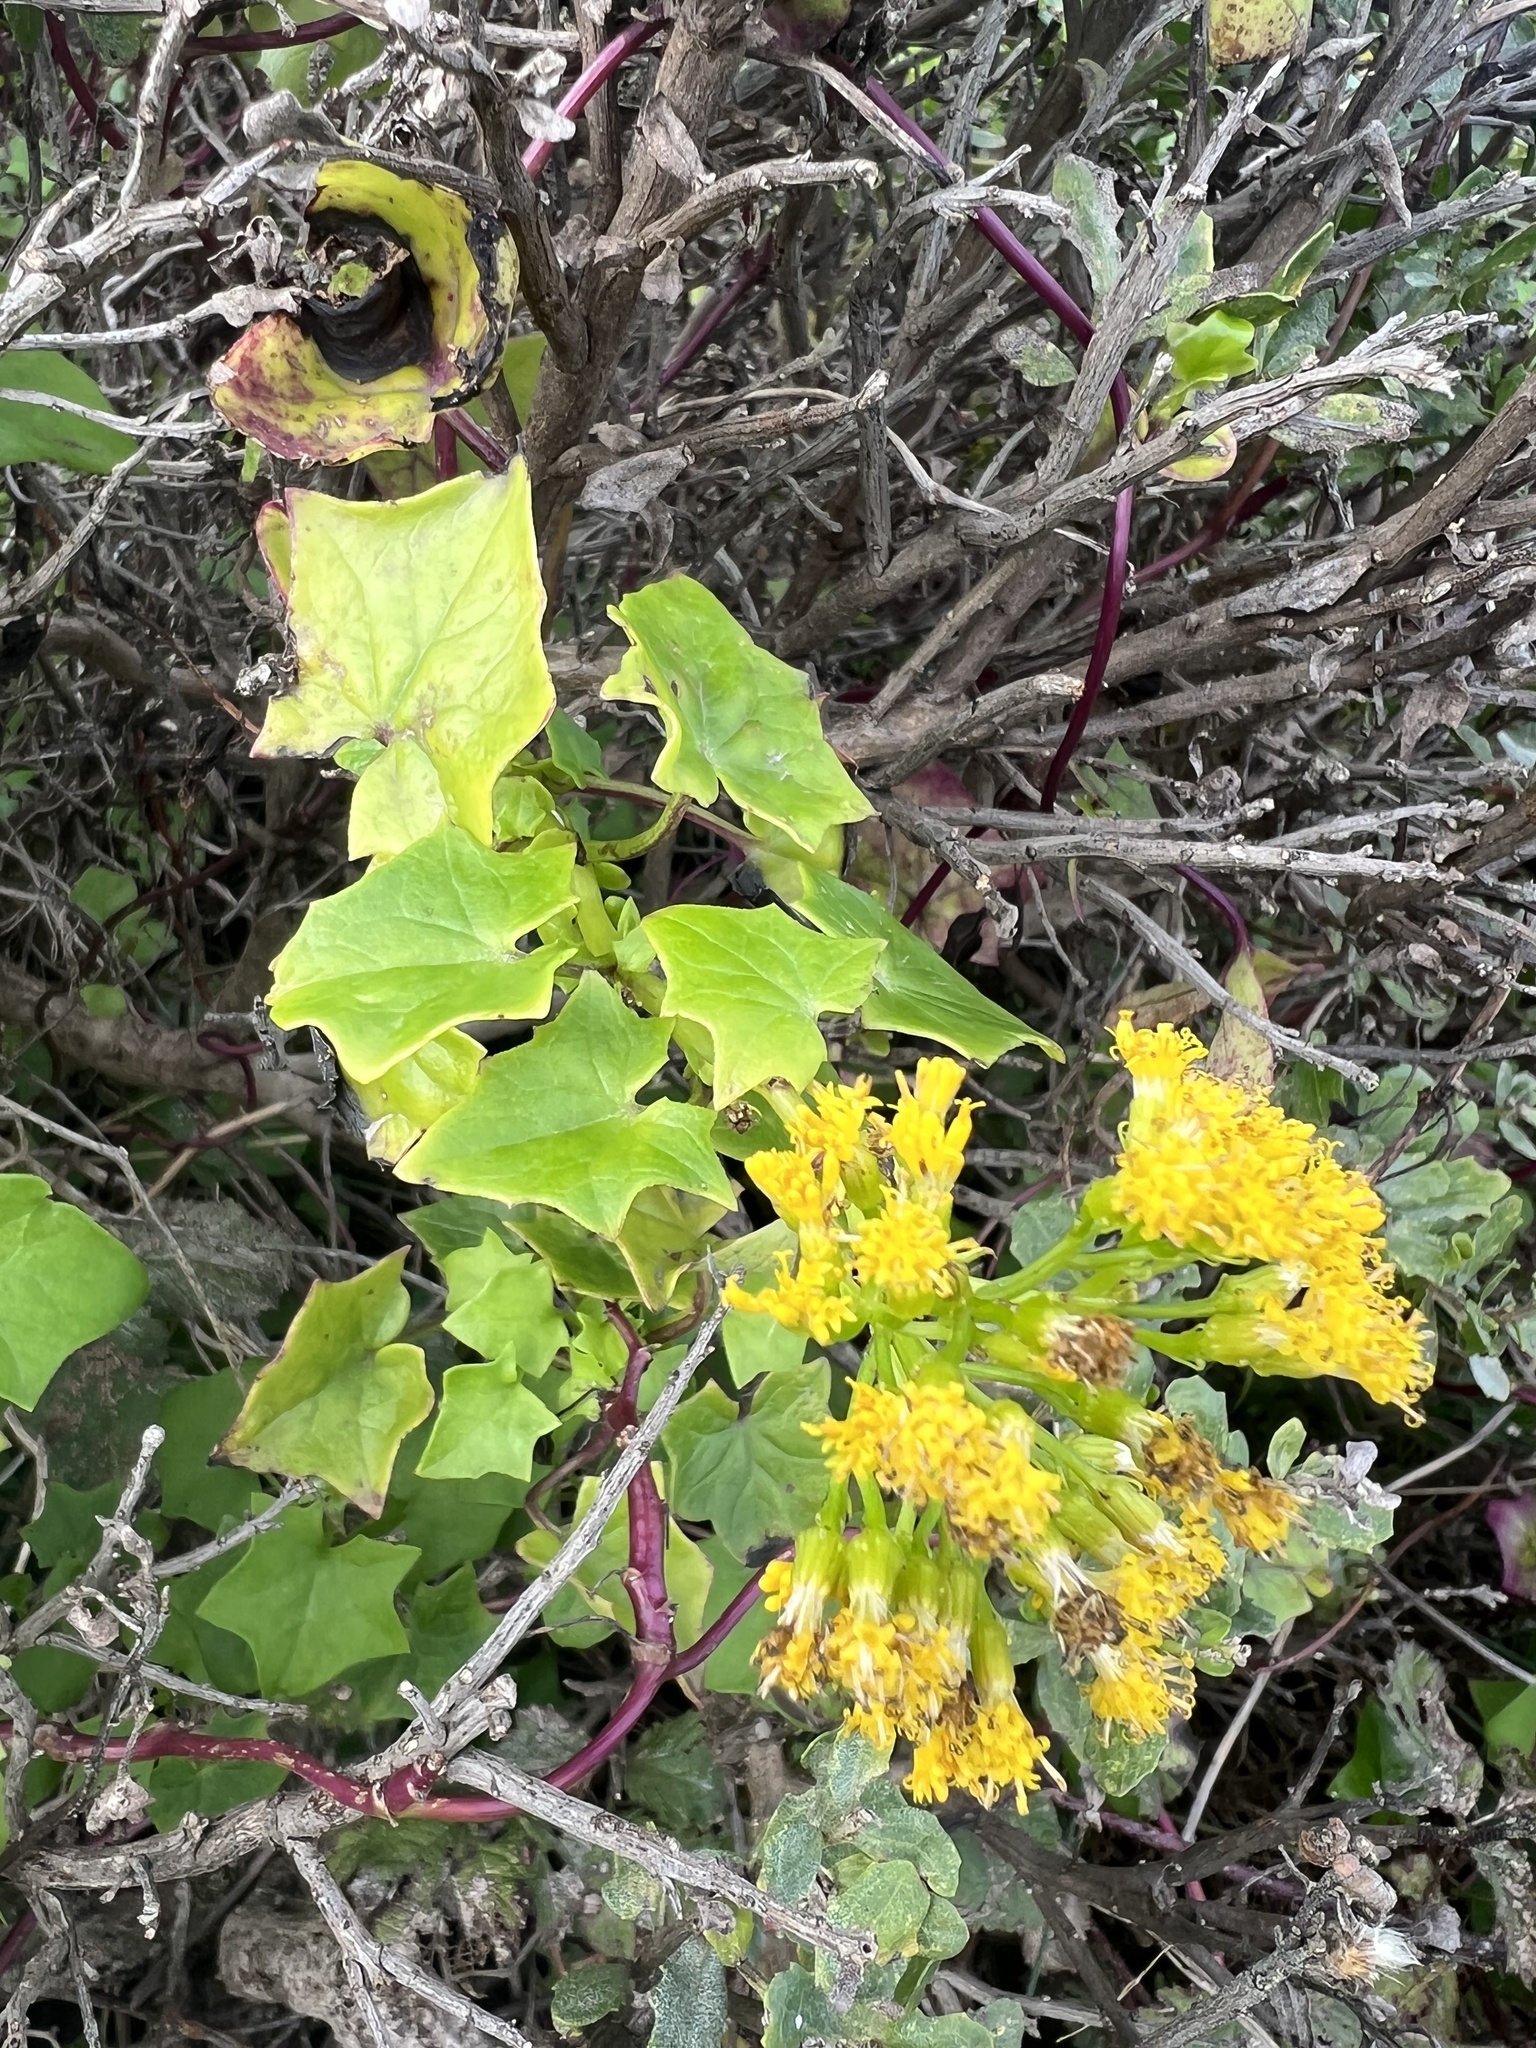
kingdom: Plantae
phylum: Tracheophyta
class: Magnoliopsida
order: Asterales
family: Asteraceae
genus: Delairea
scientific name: Delairea odorata
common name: Cape-ivy
